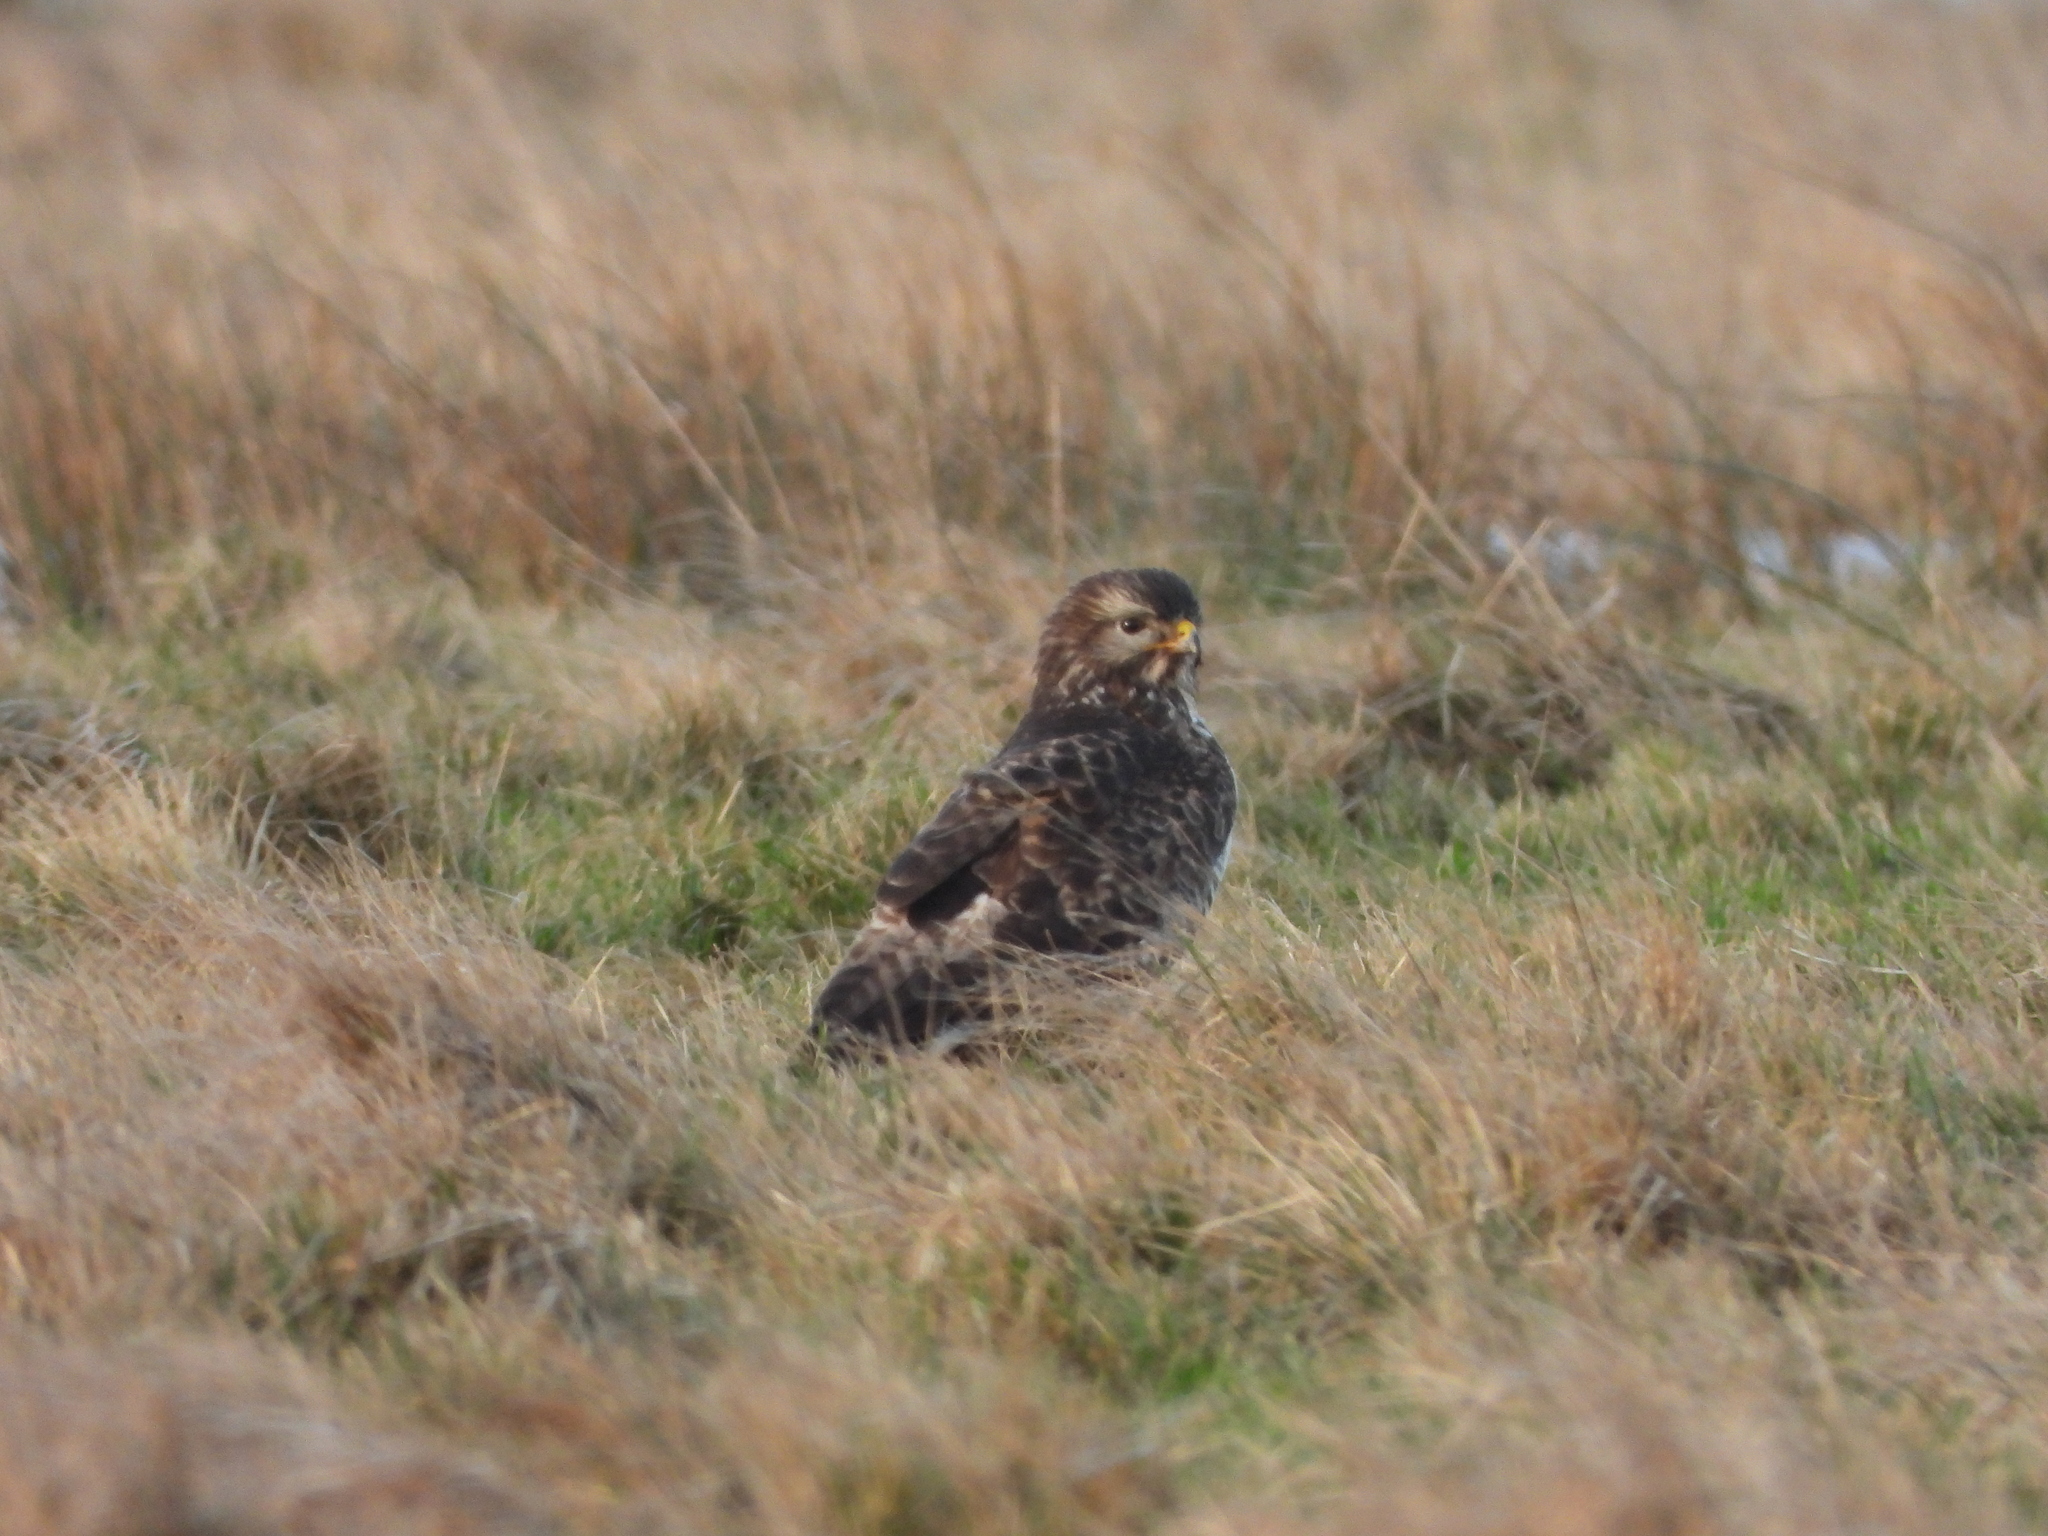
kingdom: Animalia
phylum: Chordata
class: Aves
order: Accipitriformes
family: Accipitridae
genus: Buteo
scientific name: Buteo buteo
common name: Common buzzard
